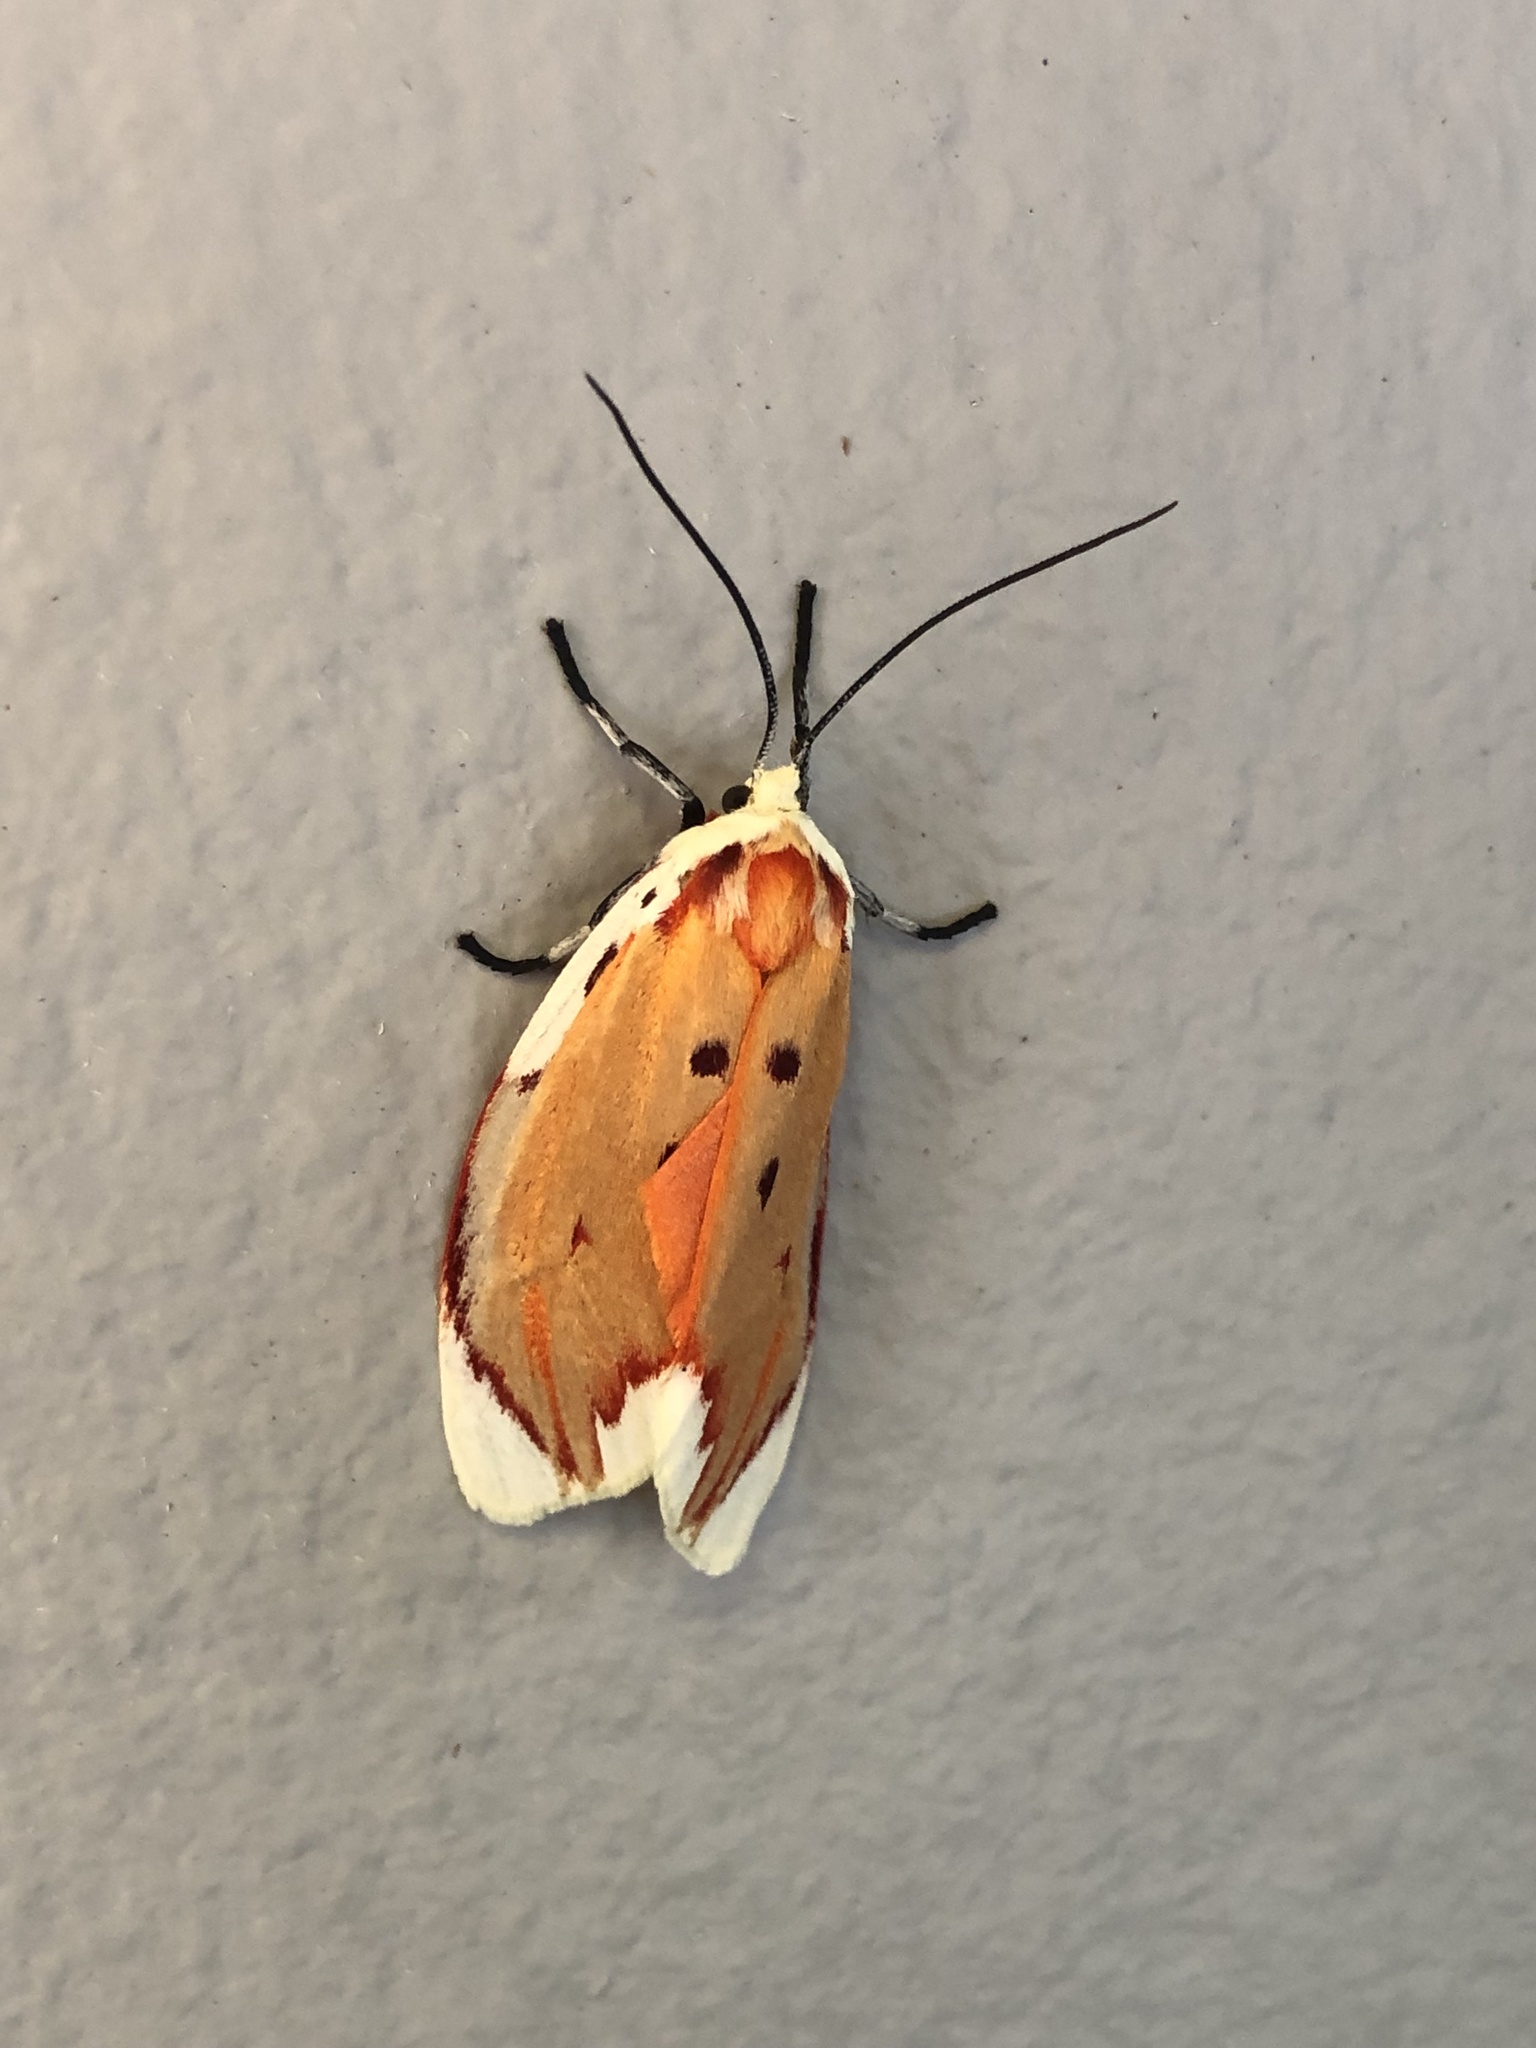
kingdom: Animalia
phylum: Arthropoda
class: Insecta
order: Lepidoptera
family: Lacturidae
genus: Lactura
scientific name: Lactura sapotearum
